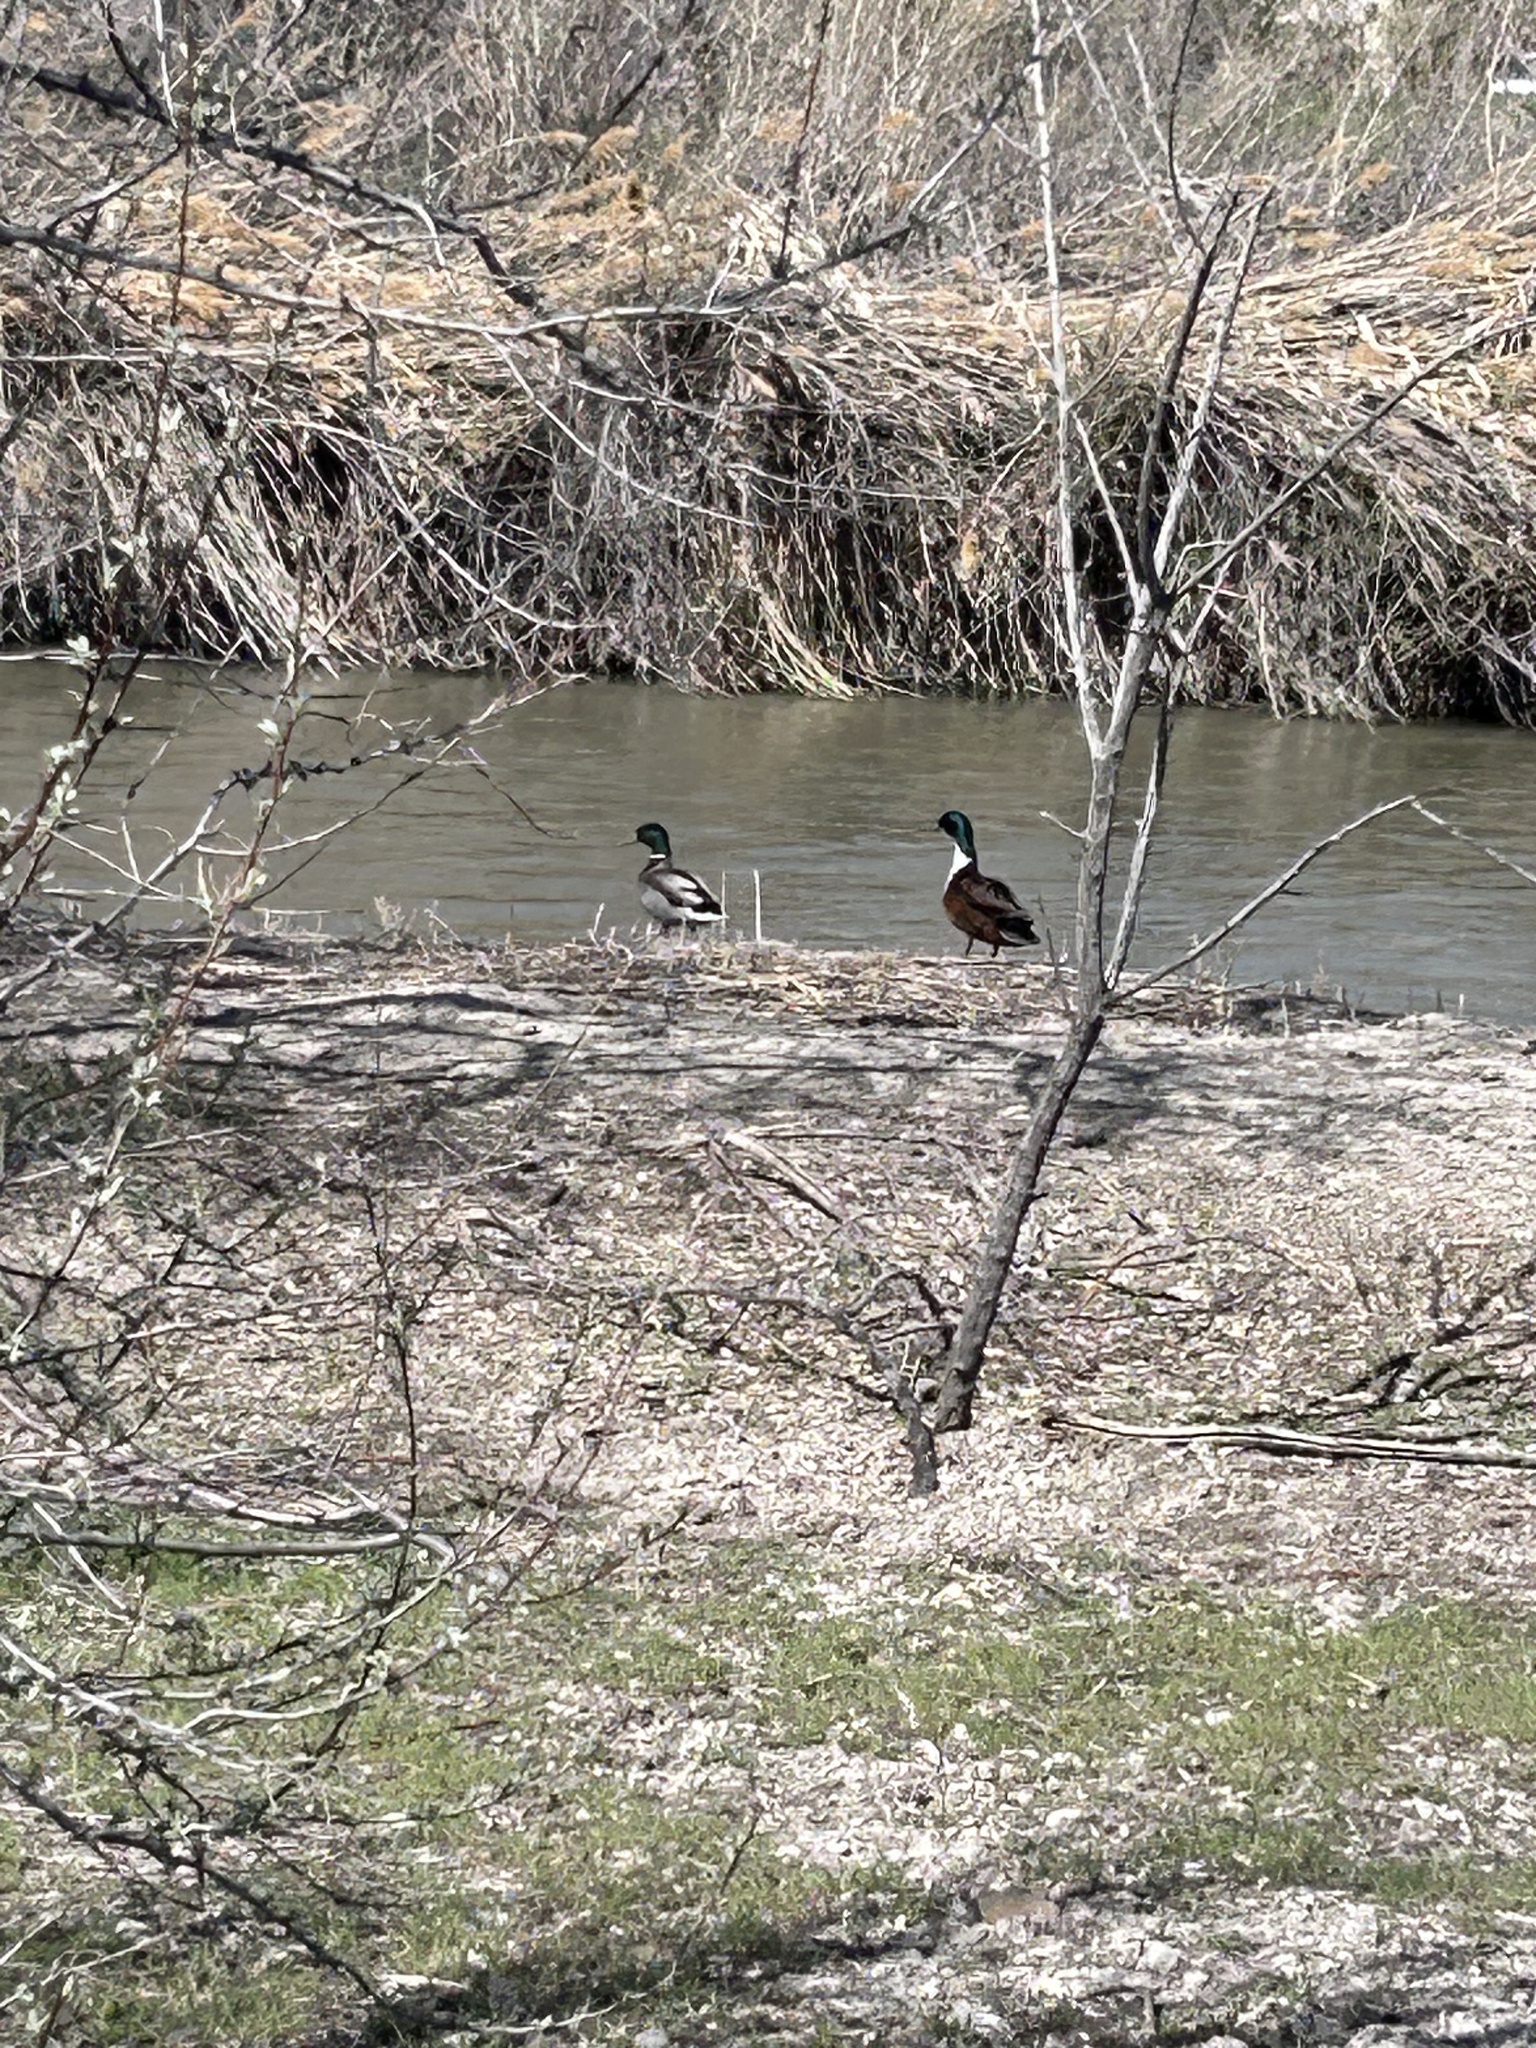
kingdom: Animalia
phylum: Chordata
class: Aves
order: Anseriformes
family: Anatidae
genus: Anas
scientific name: Anas platyrhynchos
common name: Mallard
